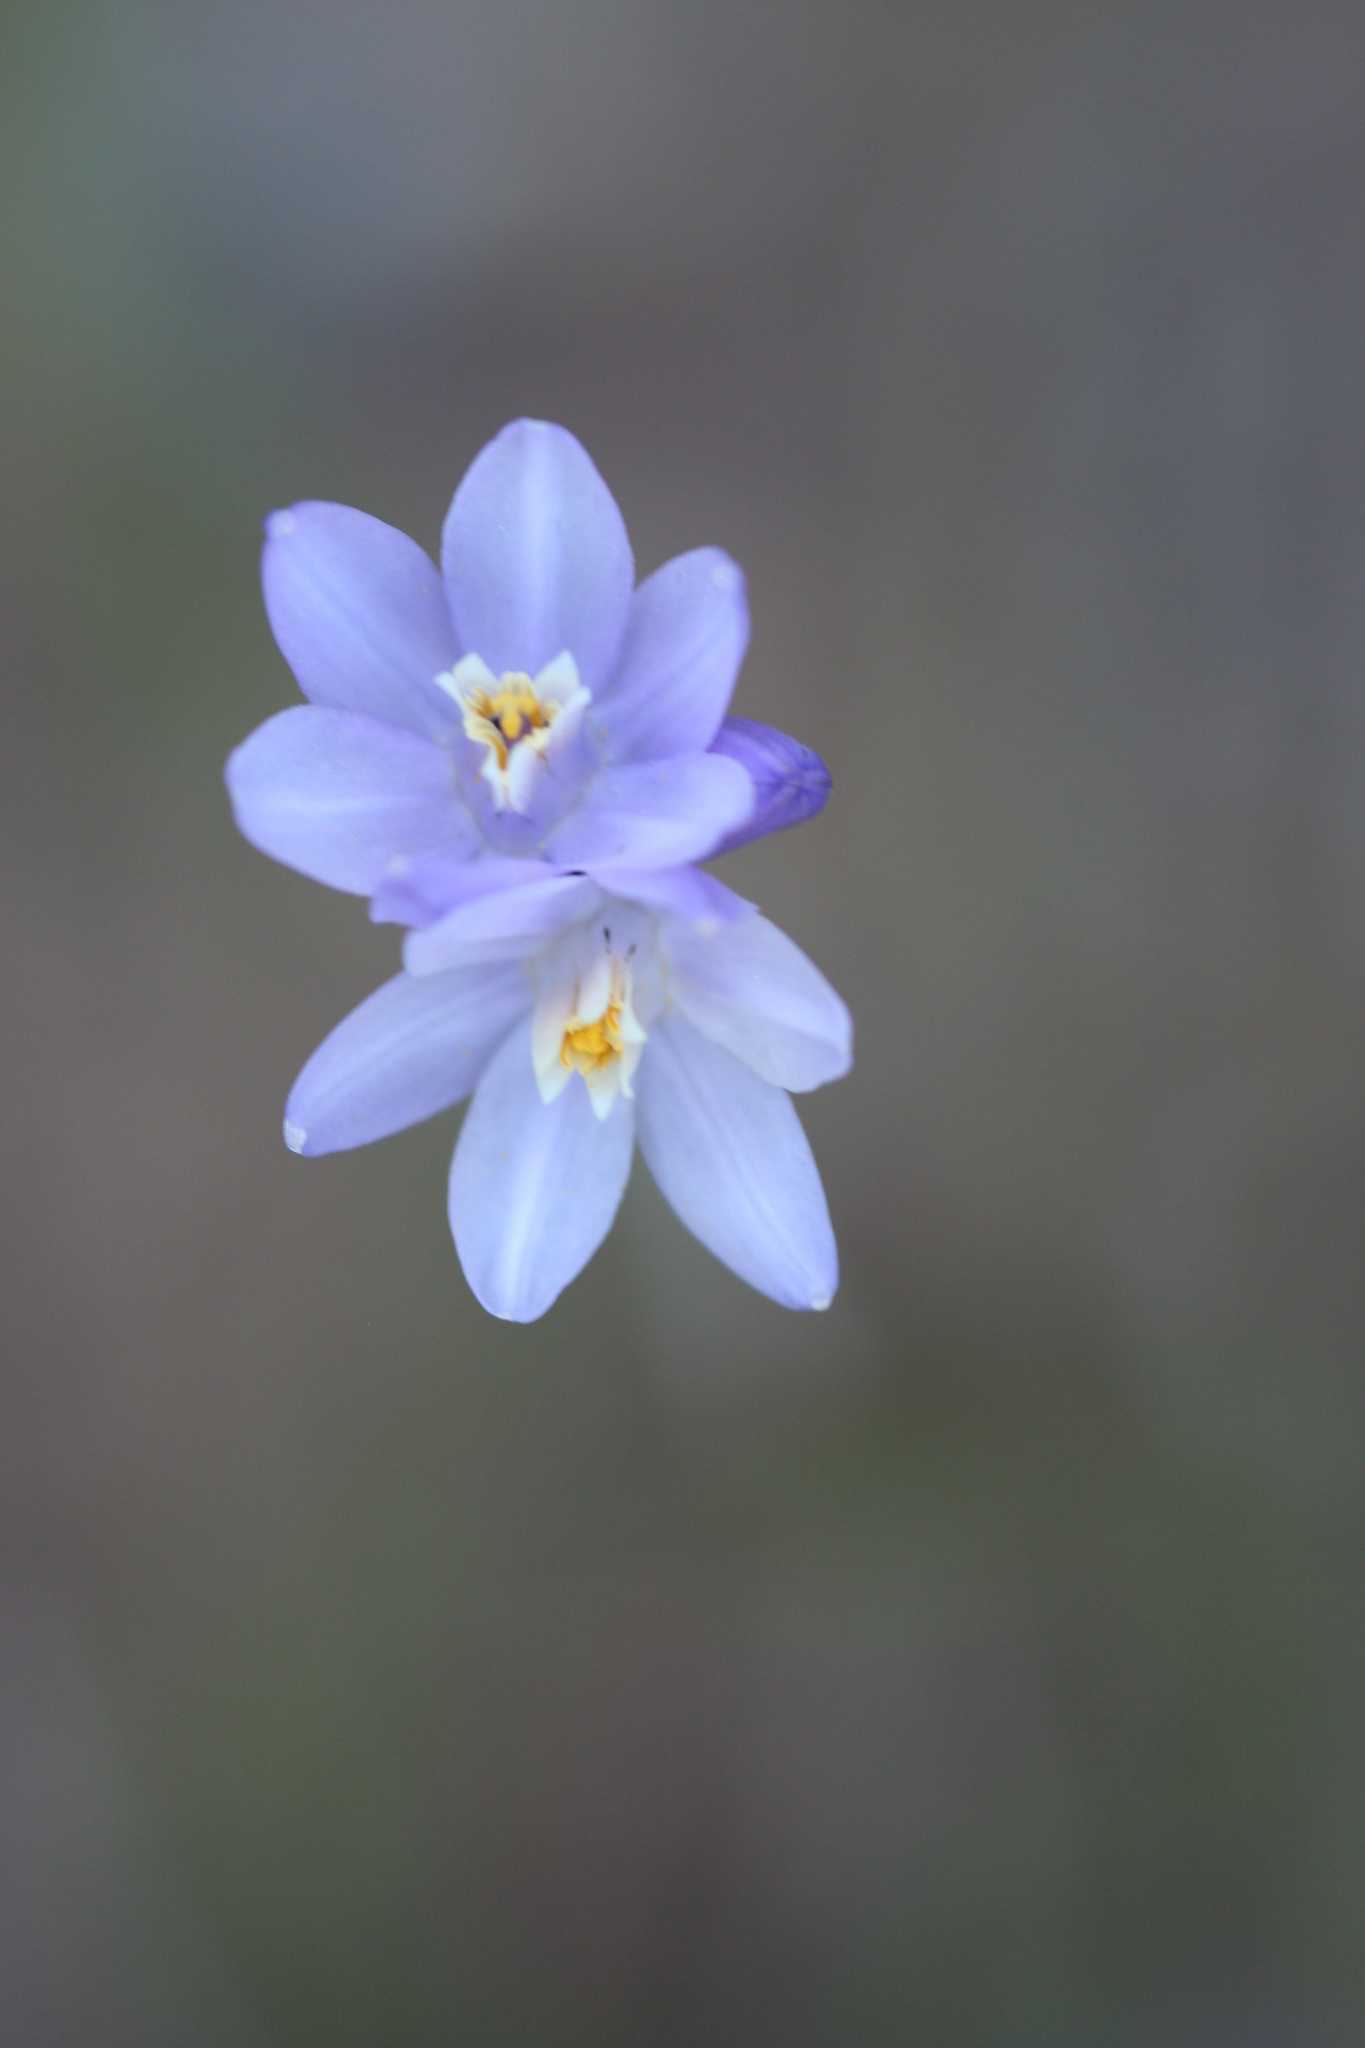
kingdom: Plantae
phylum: Tracheophyta
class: Liliopsida
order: Asparagales
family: Asparagaceae
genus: Dipterostemon
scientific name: Dipterostemon capitatus
